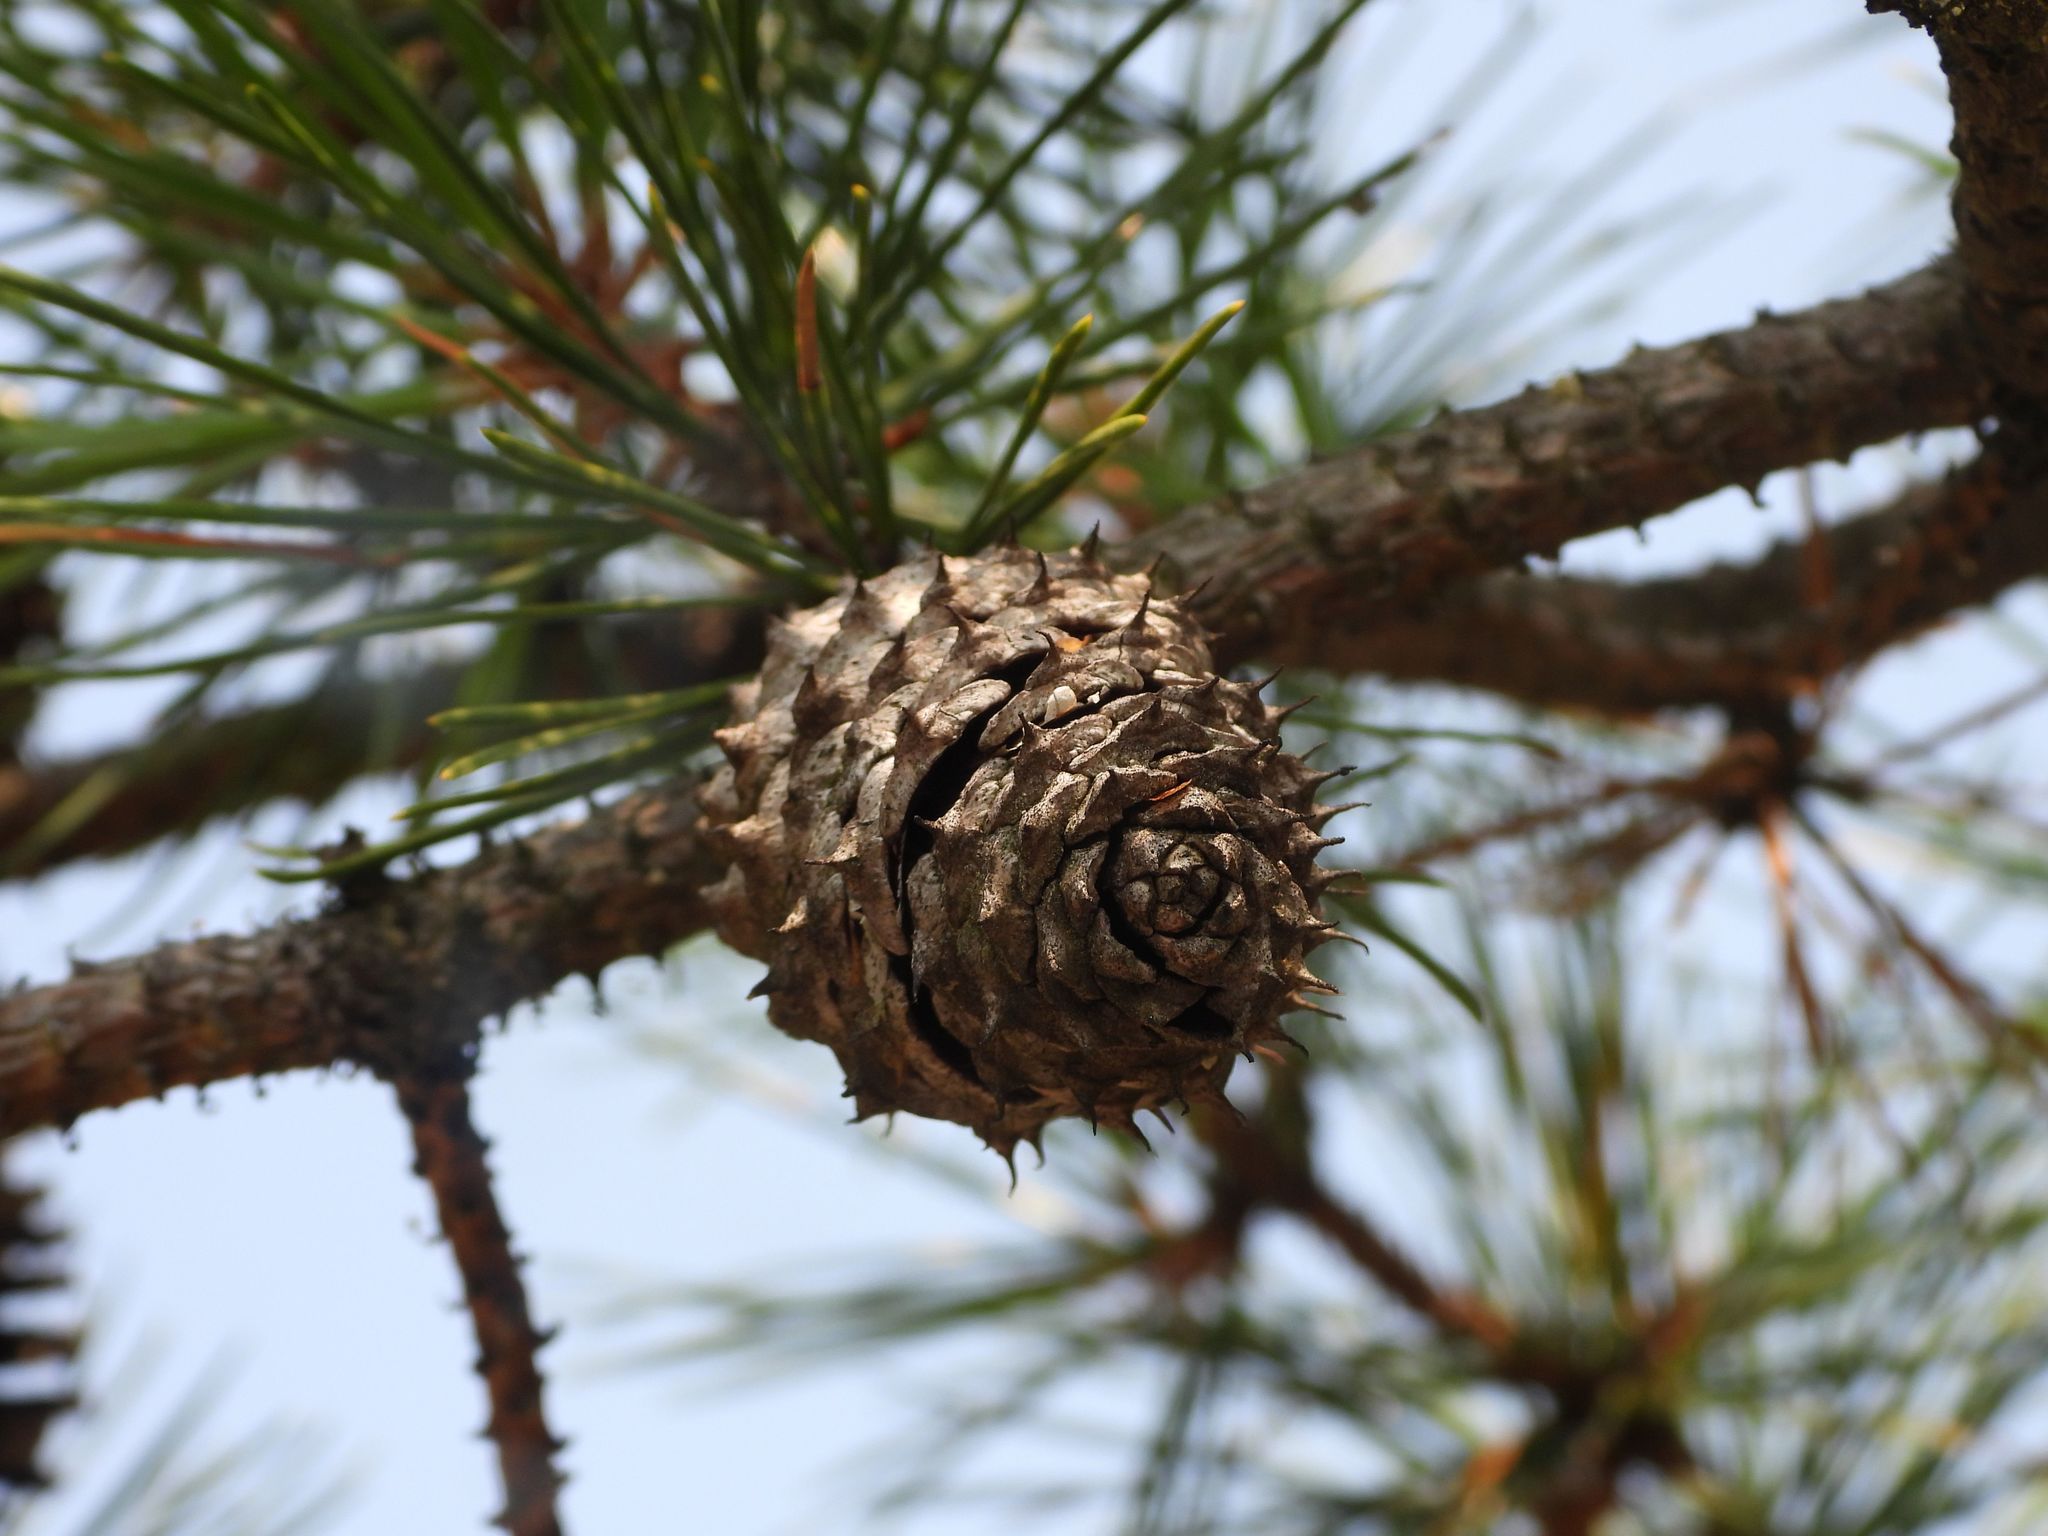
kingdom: Plantae
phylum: Tracheophyta
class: Pinopsida
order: Pinales
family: Pinaceae
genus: Pinus
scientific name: Pinus rigida
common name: Pitch pine
